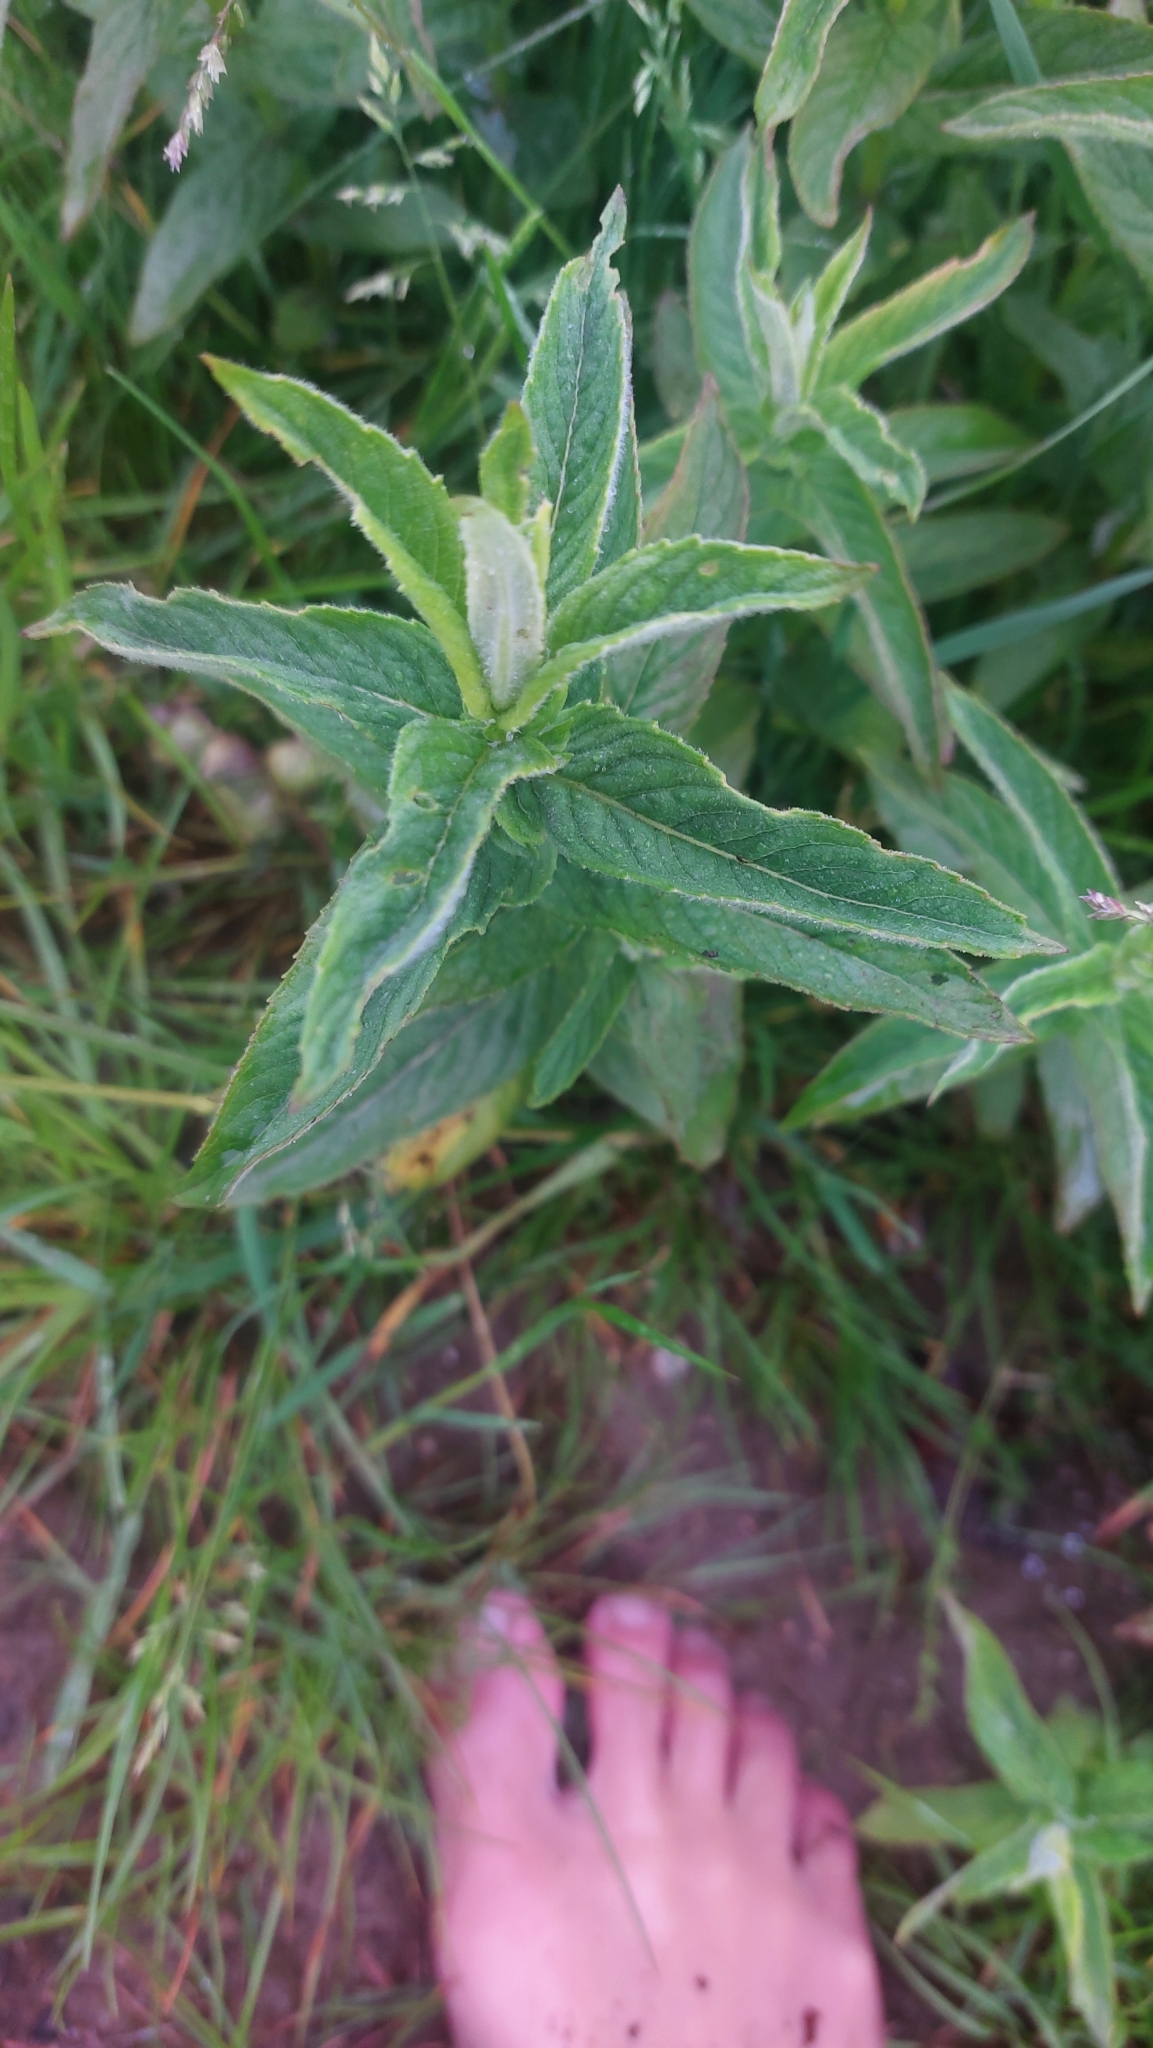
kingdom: Plantae
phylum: Tracheophyta
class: Magnoliopsida
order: Lamiales
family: Lamiaceae
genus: Mentha
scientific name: Mentha longifolia
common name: Horse mint
